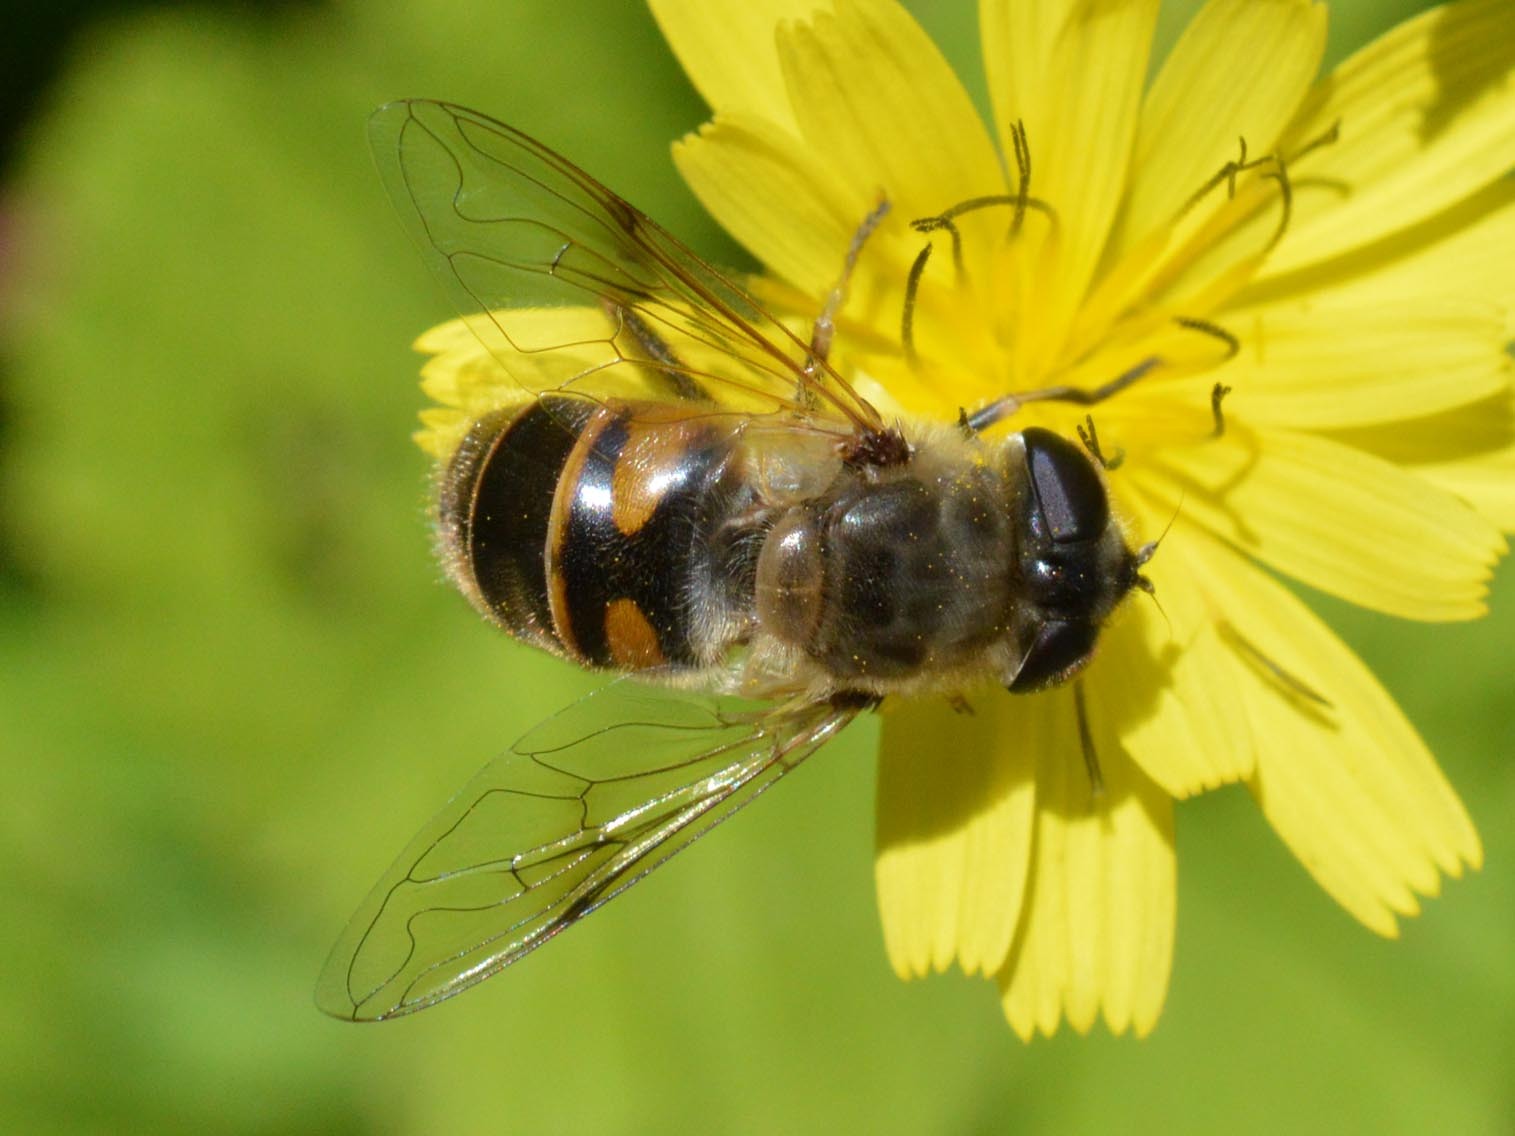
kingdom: Animalia
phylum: Arthropoda
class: Insecta
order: Diptera
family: Syrphidae
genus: Eristalis
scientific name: Eristalis tenax
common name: Drone fly
